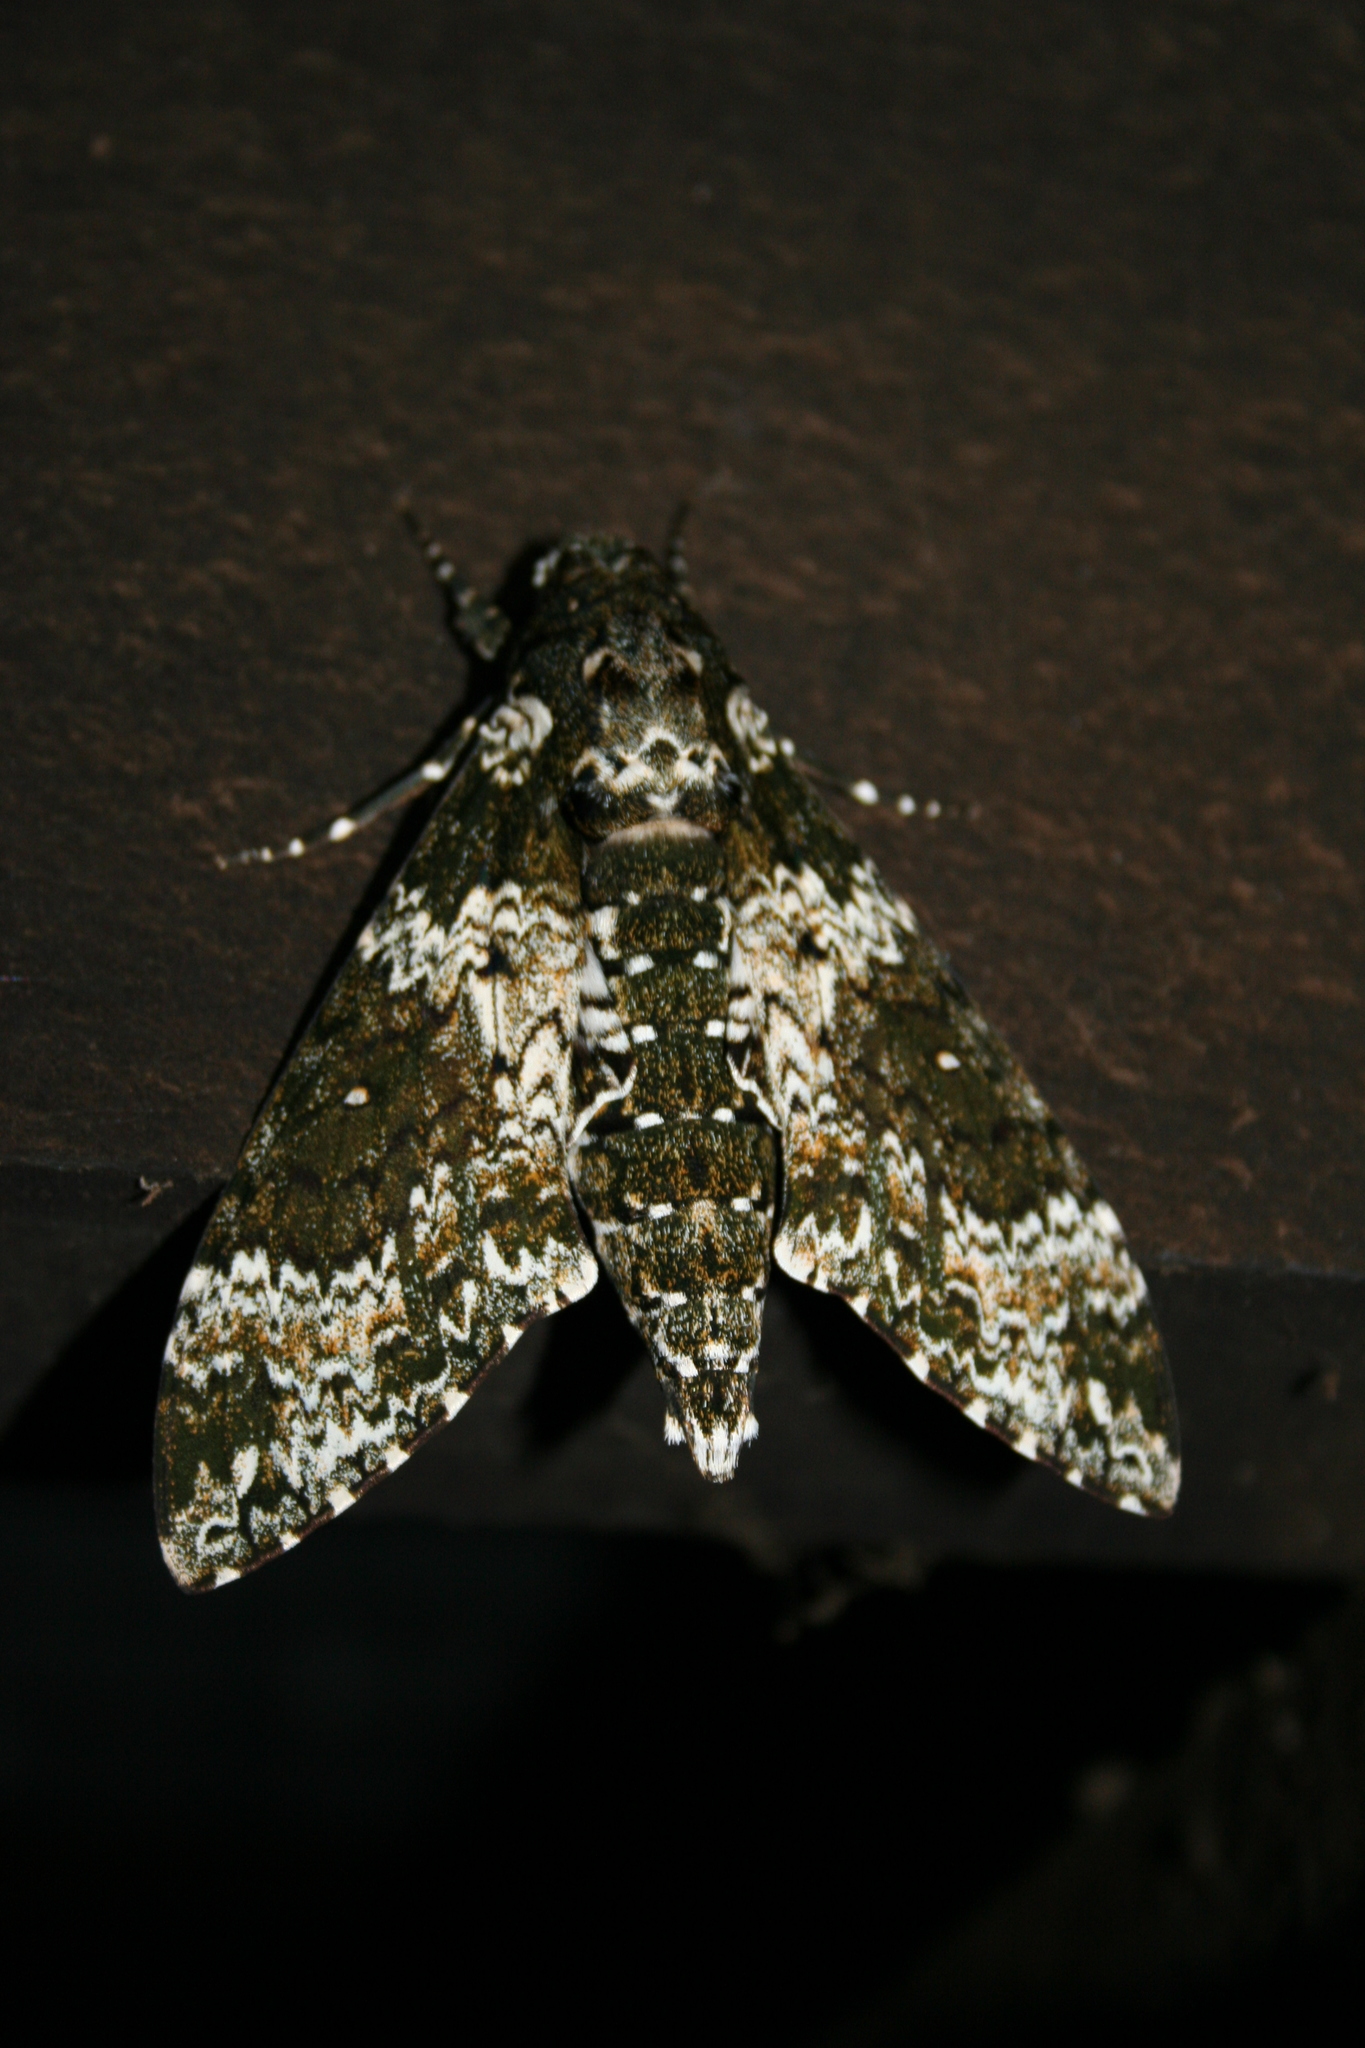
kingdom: Animalia
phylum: Arthropoda
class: Insecta
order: Lepidoptera
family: Sphingidae
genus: Manduca
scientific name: Manduca rustica
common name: Rustic sphinx
